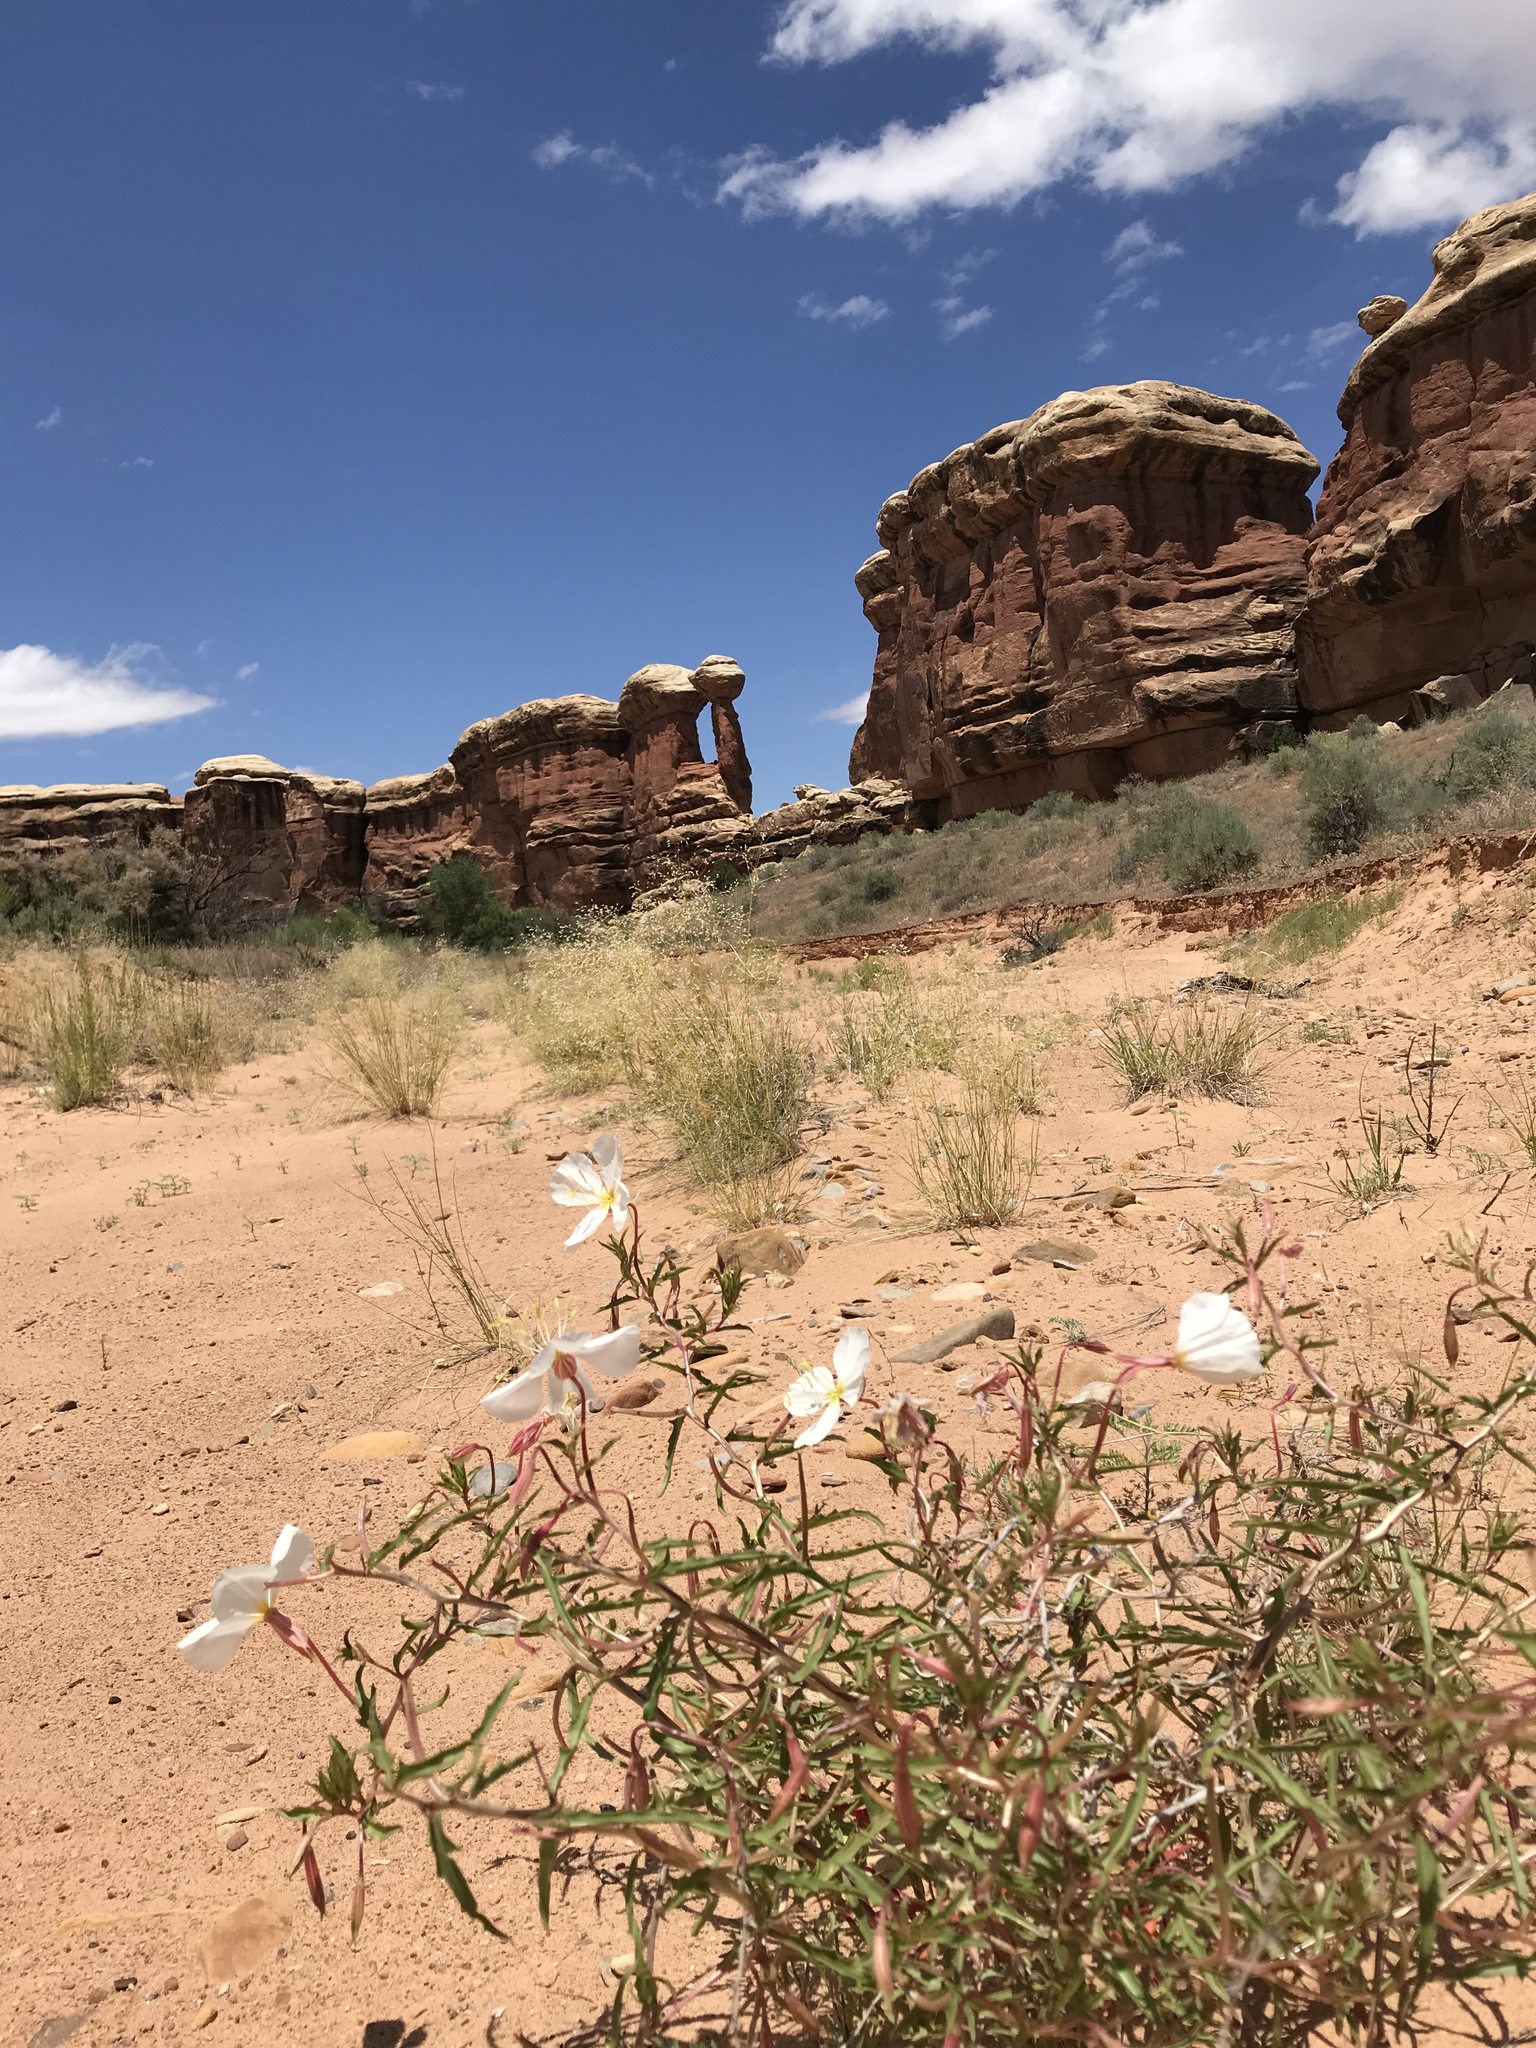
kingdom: Plantae
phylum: Tracheophyta
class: Magnoliopsida
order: Myrtales
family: Onagraceae
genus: Oenothera
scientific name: Oenothera pallida
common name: Pale evening-primrose
